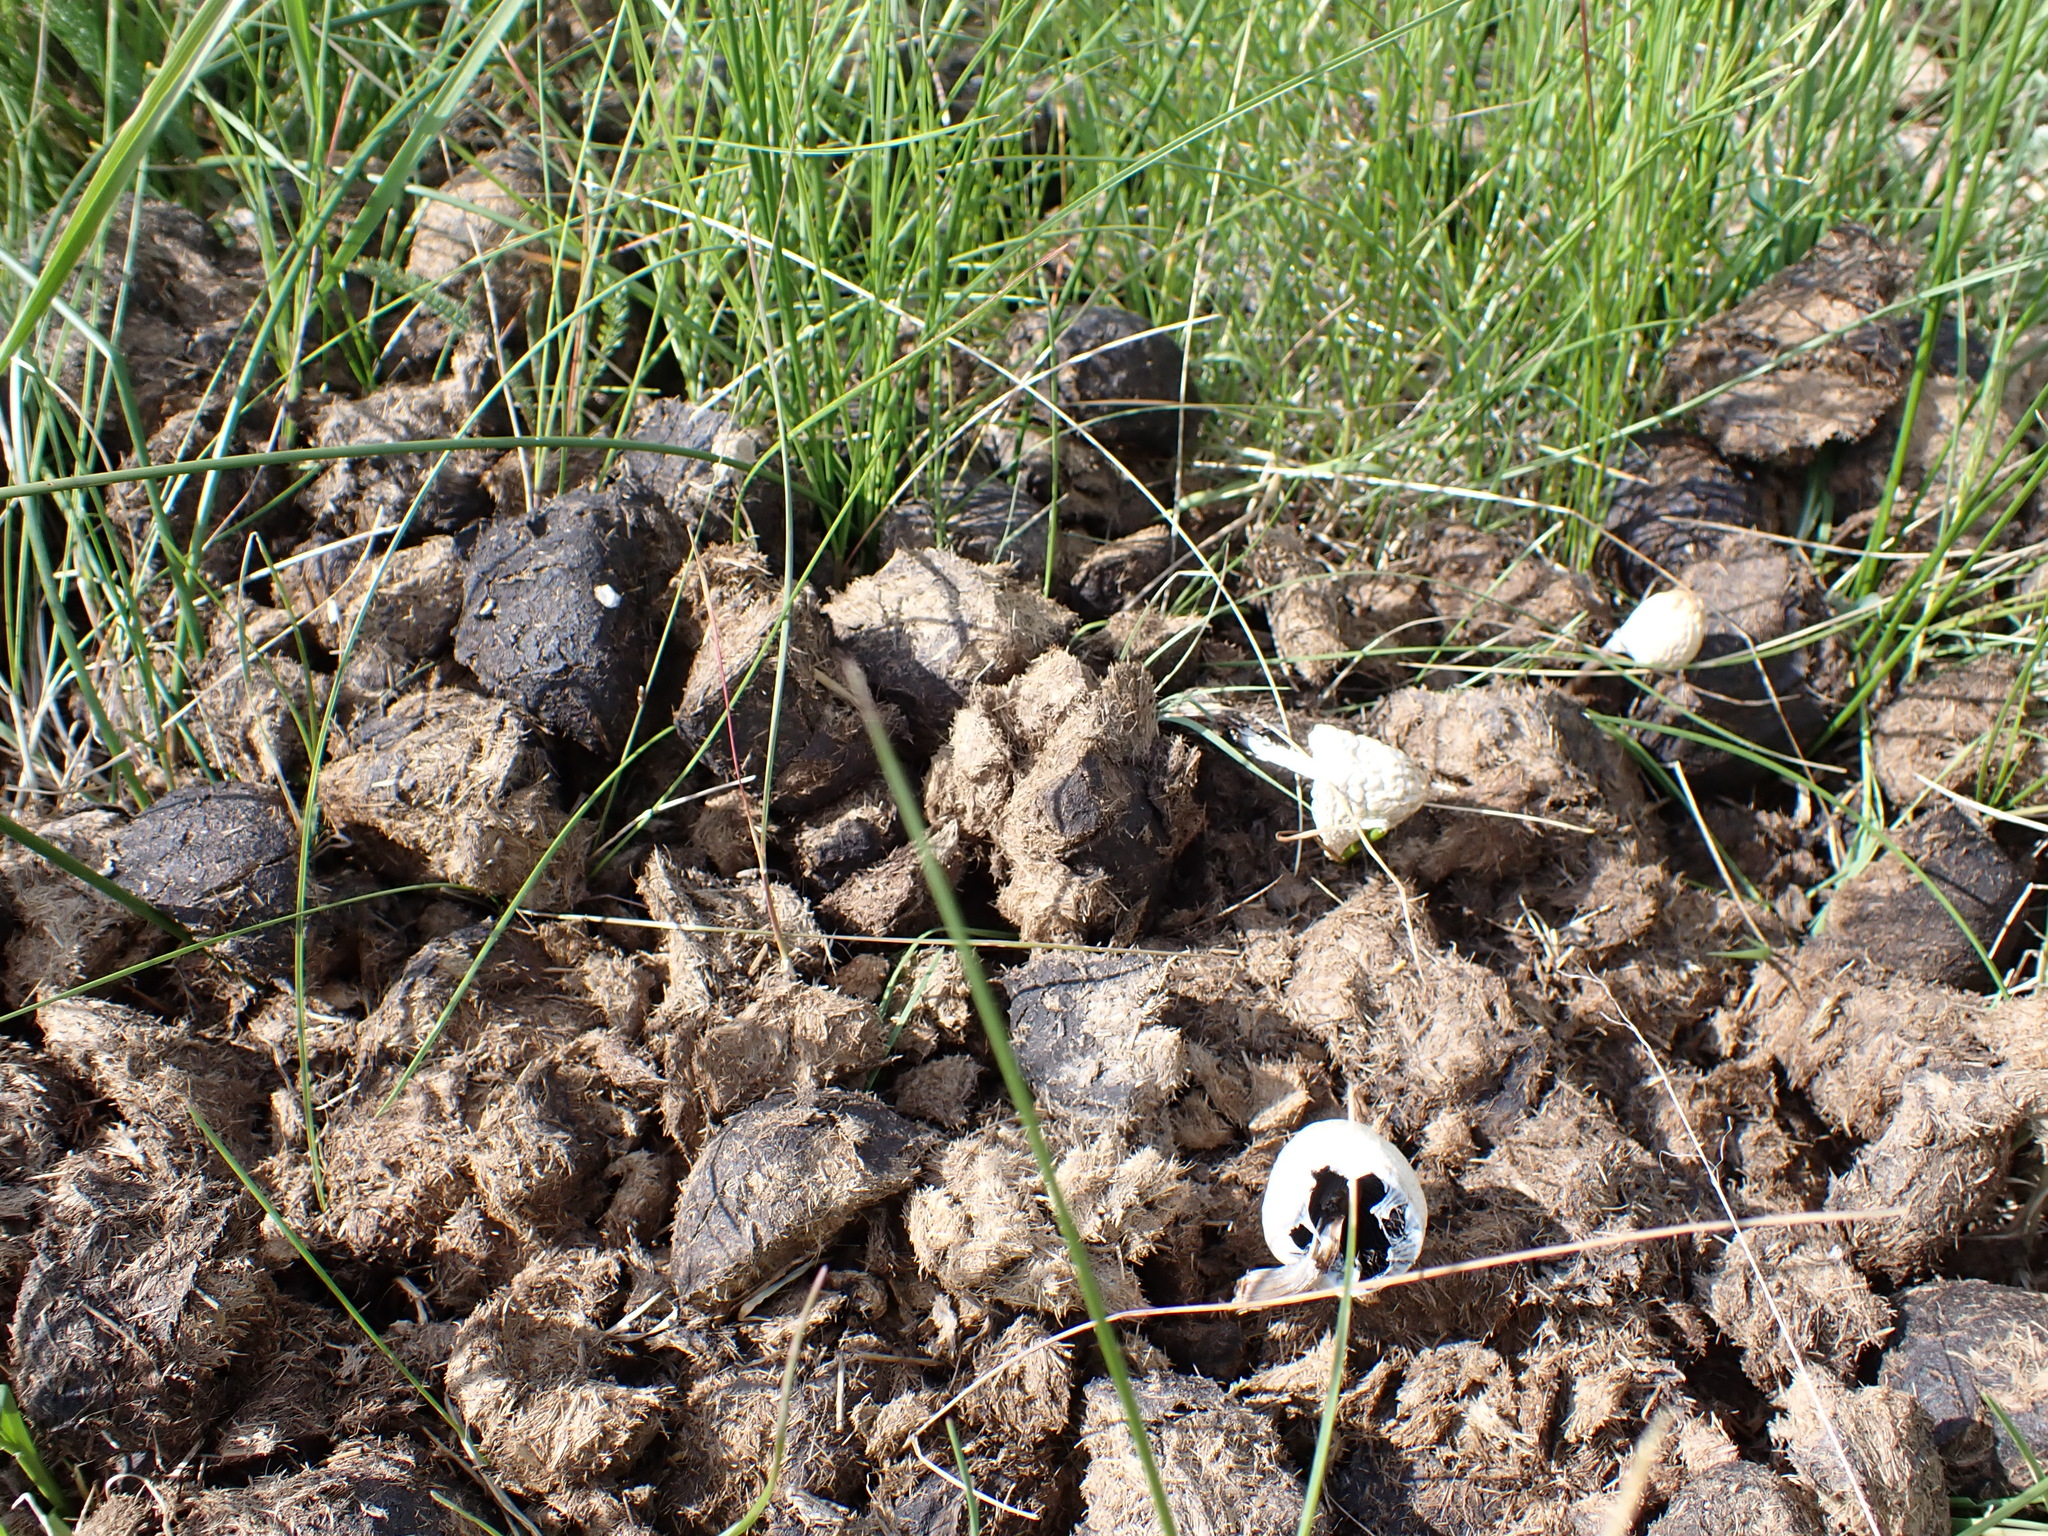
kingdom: Animalia
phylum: Chordata
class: Mammalia
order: Perissodactyla
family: Equidae
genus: Equus
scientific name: Equus caballus
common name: Horse
